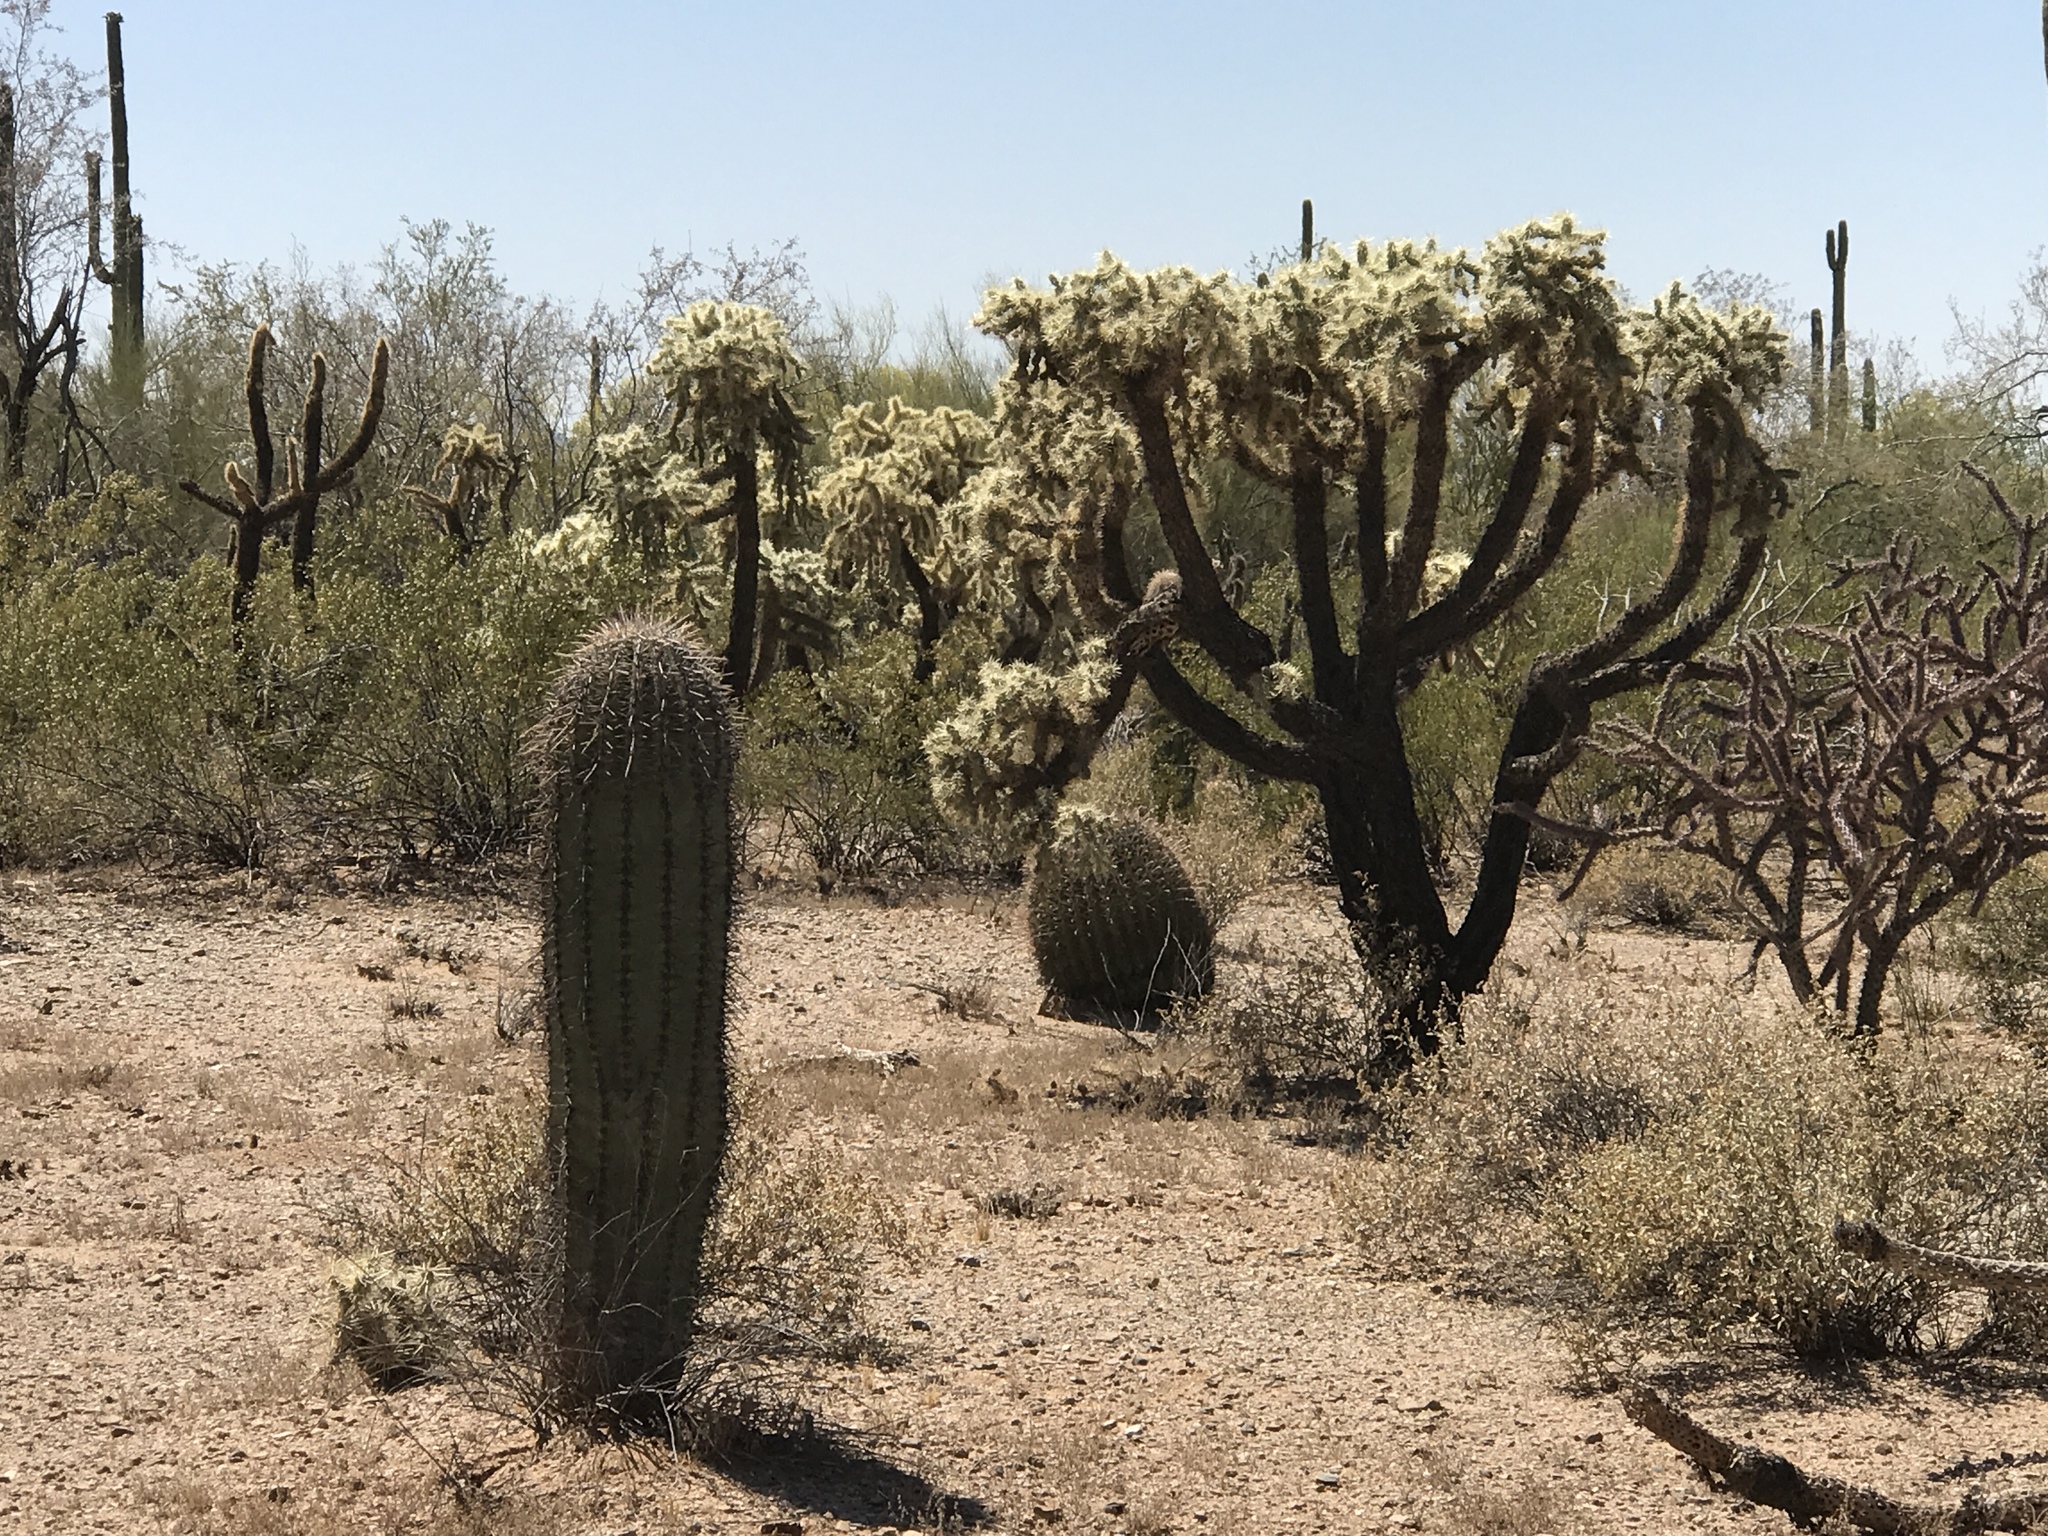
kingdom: Plantae
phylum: Tracheophyta
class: Magnoliopsida
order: Caryophyllales
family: Cactaceae
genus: Cylindropuntia
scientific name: Cylindropuntia fulgida
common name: Jumping cholla
